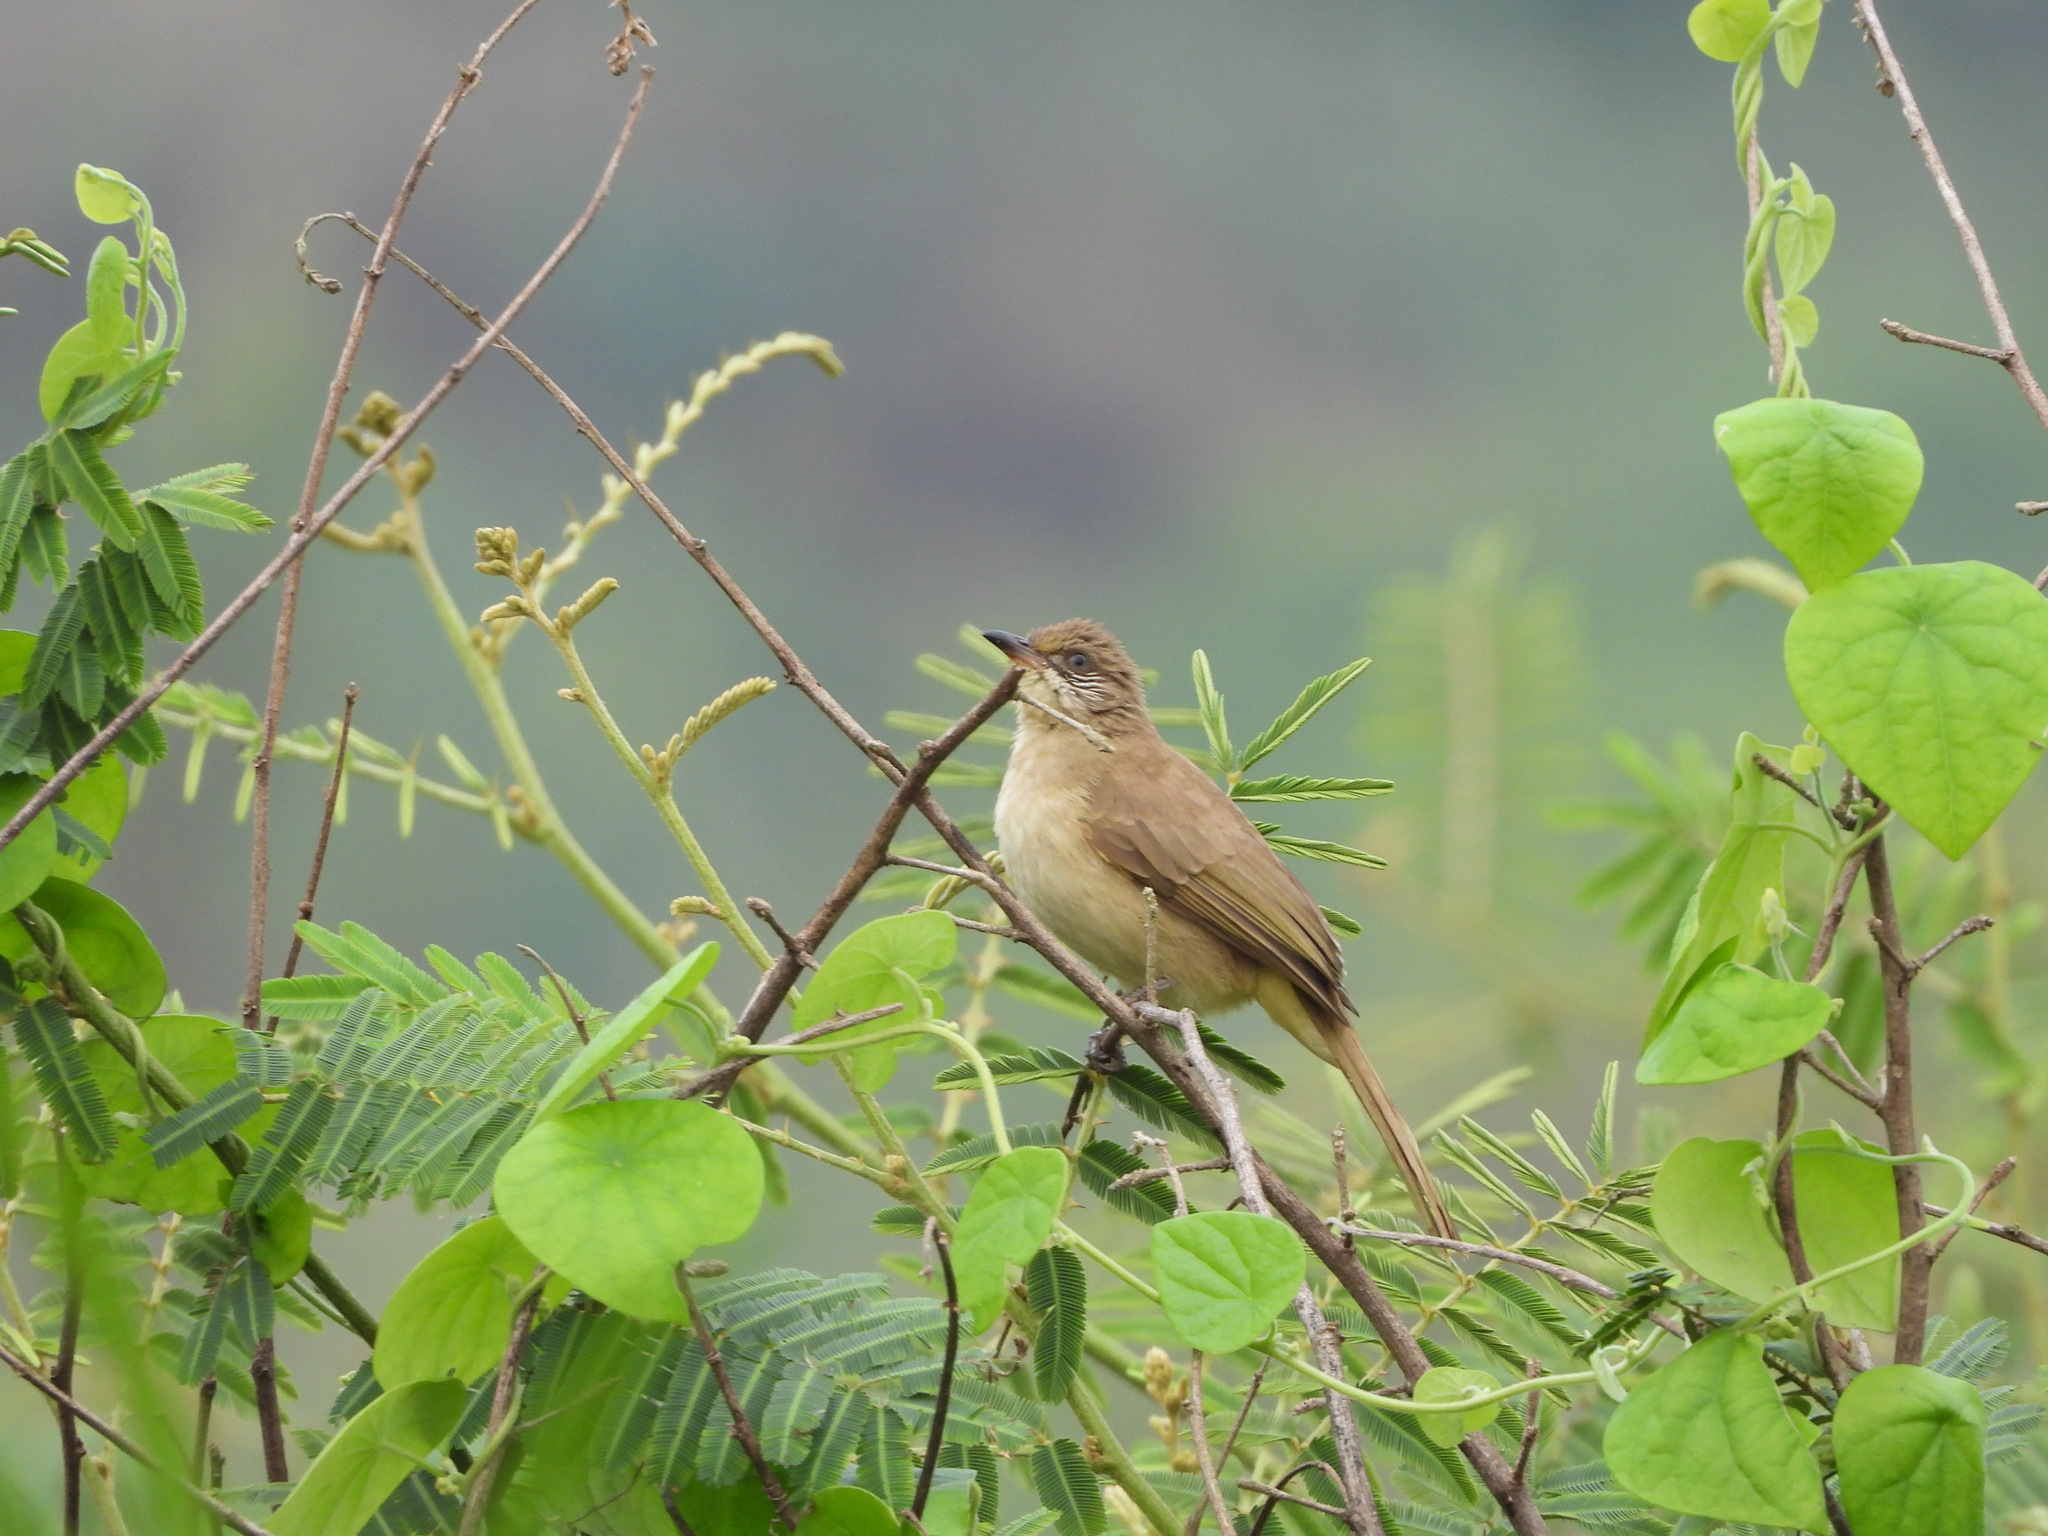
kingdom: Animalia
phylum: Chordata
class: Aves
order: Passeriformes
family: Pycnonotidae
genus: Pycnonotus
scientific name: Pycnonotus blanfordi
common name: Streak-eared bulbul
